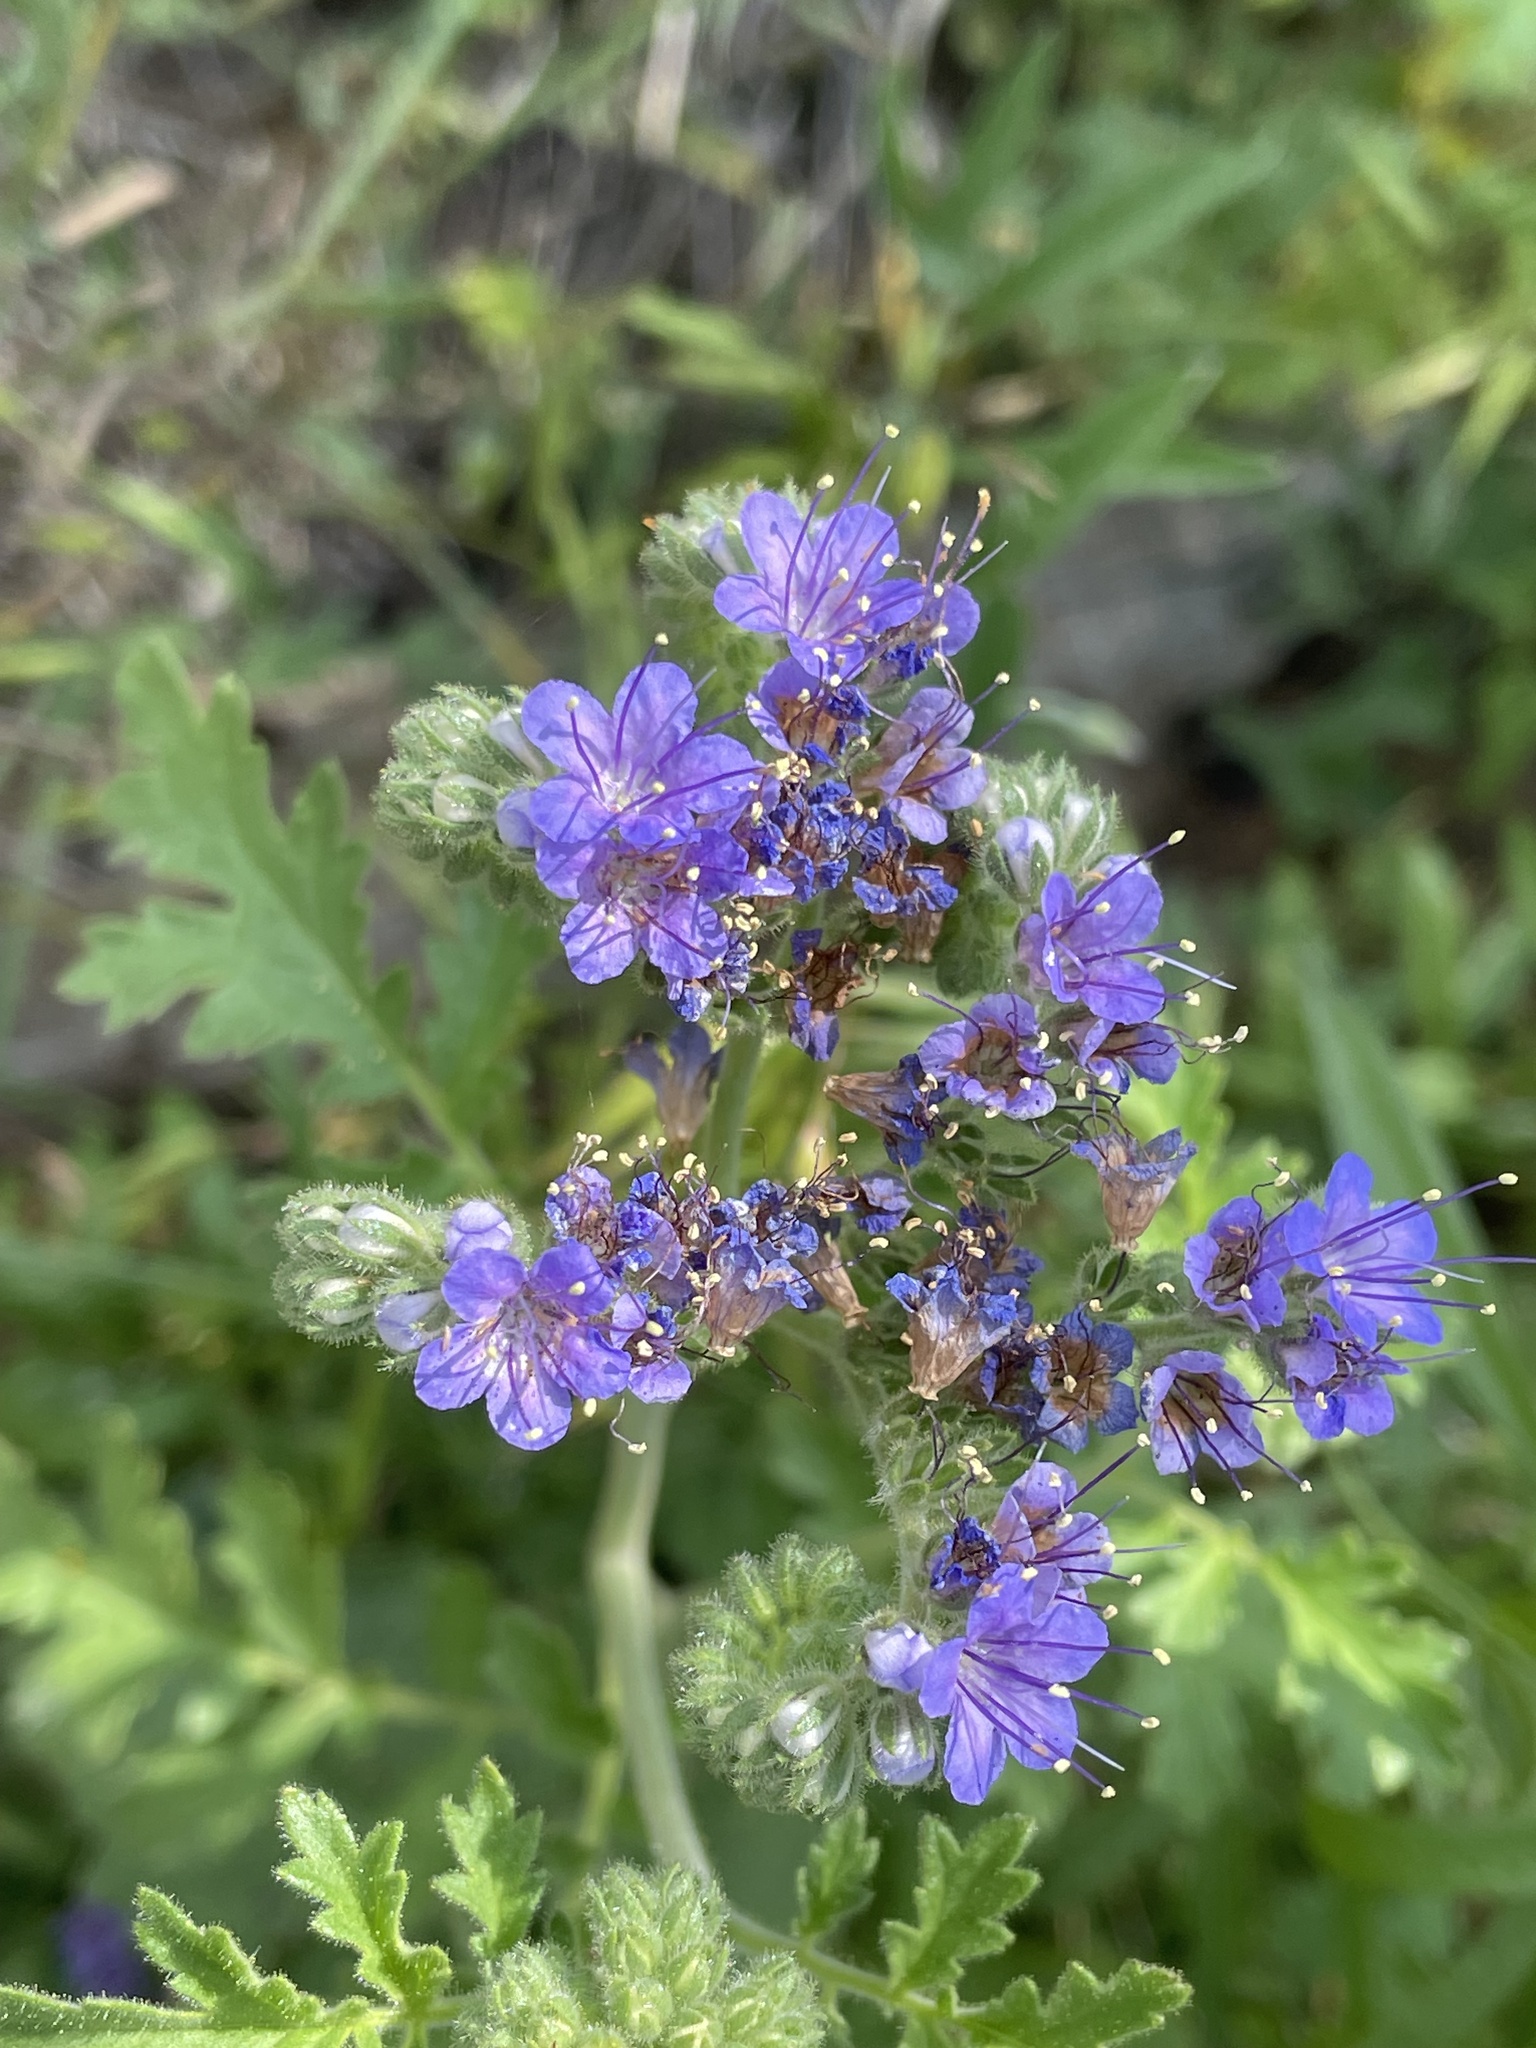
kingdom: Plantae
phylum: Tracheophyta
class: Magnoliopsida
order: Boraginales
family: Hydrophyllaceae
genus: Phacelia
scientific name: Phacelia congesta
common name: Blue curls
